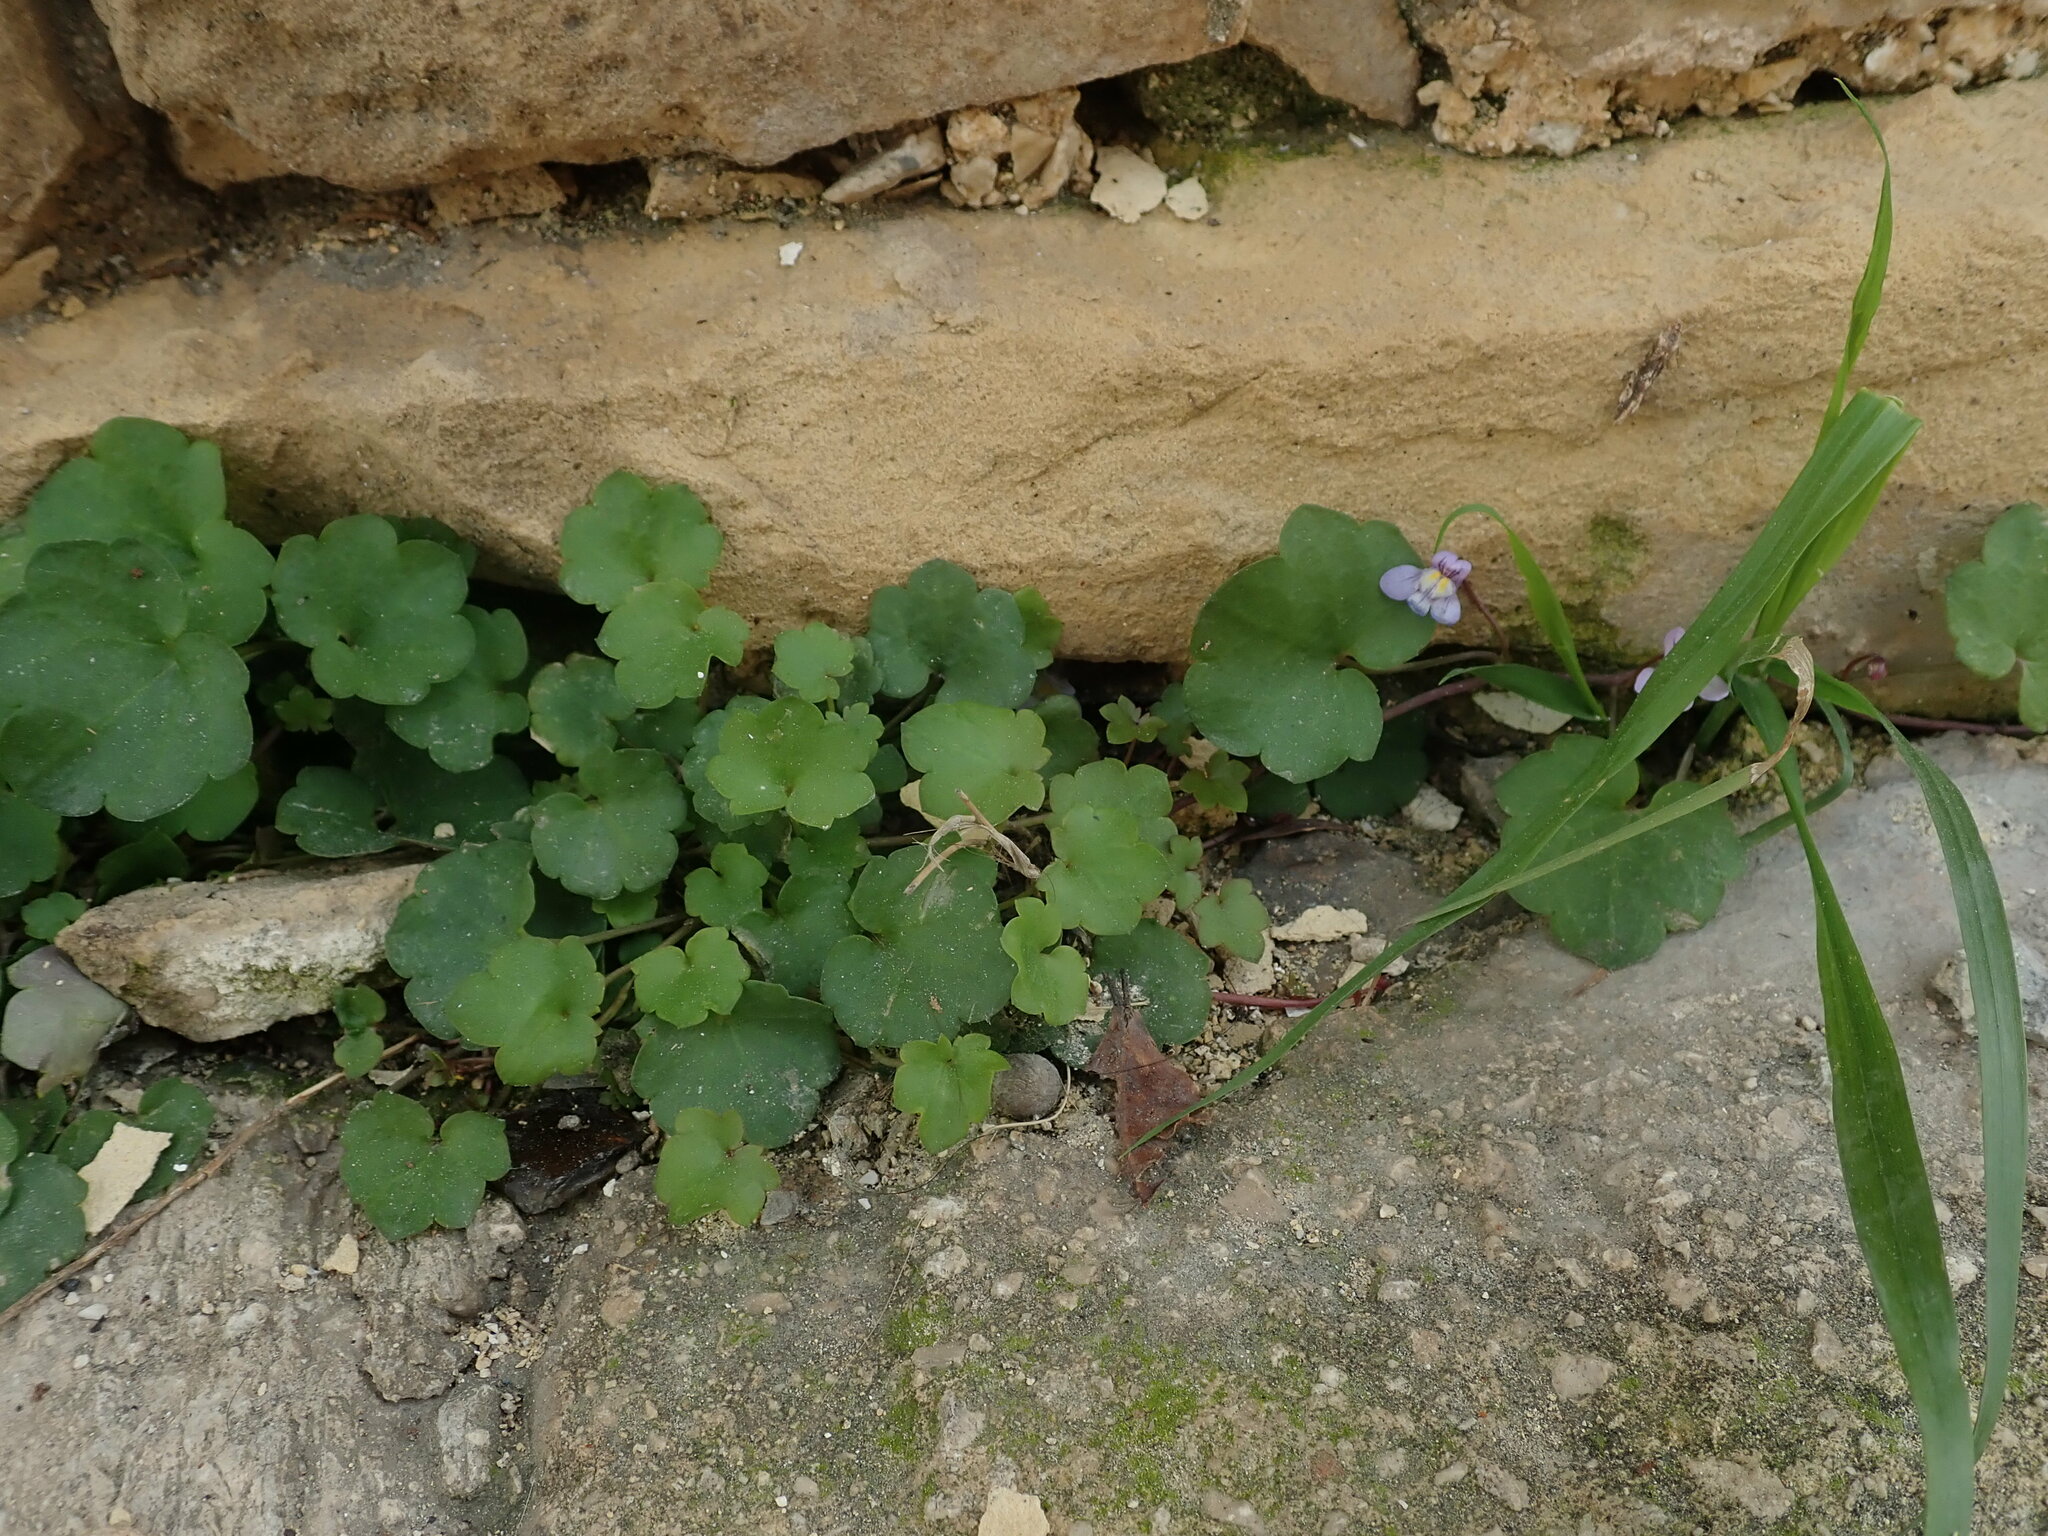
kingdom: Plantae
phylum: Tracheophyta
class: Magnoliopsida
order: Lamiales
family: Plantaginaceae
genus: Cymbalaria
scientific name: Cymbalaria muralis
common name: Ivy-leaved toadflax
